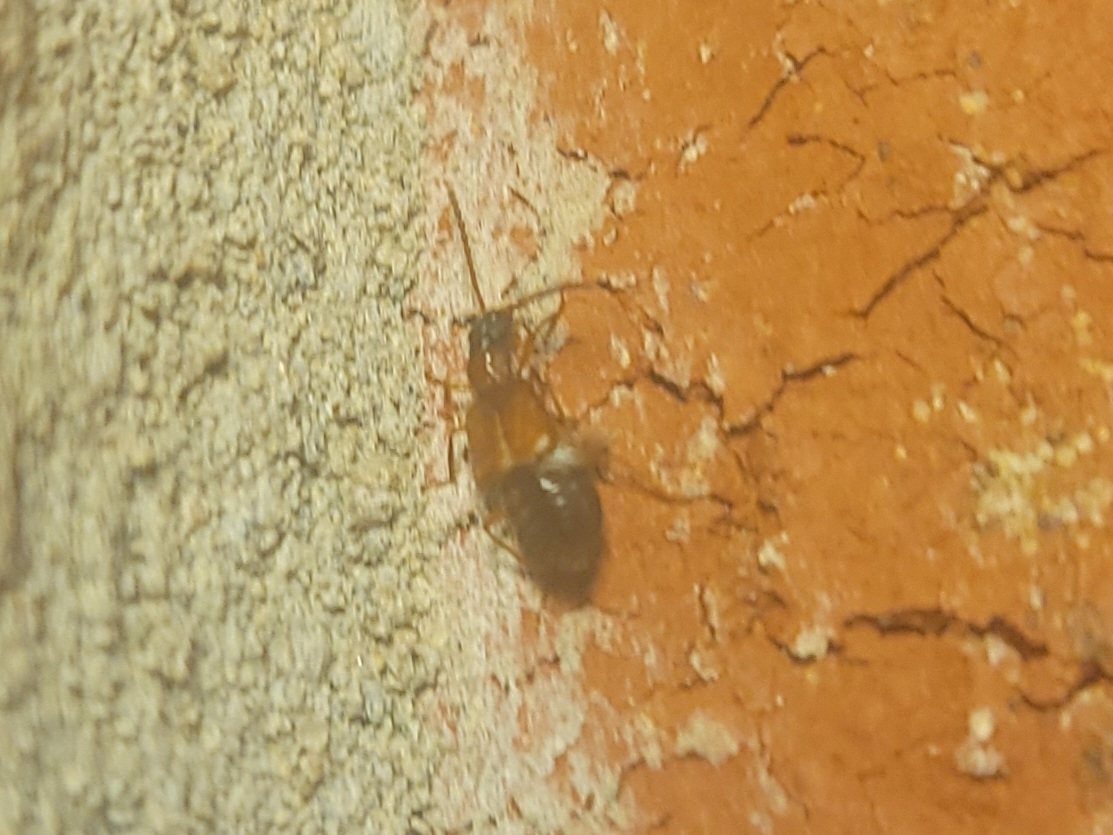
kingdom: Animalia
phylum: Arthropoda
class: Insecta
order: Coleoptera
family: Staphylinidae
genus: Deleaster
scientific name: Deleaster dichrous
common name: Rove beetle
